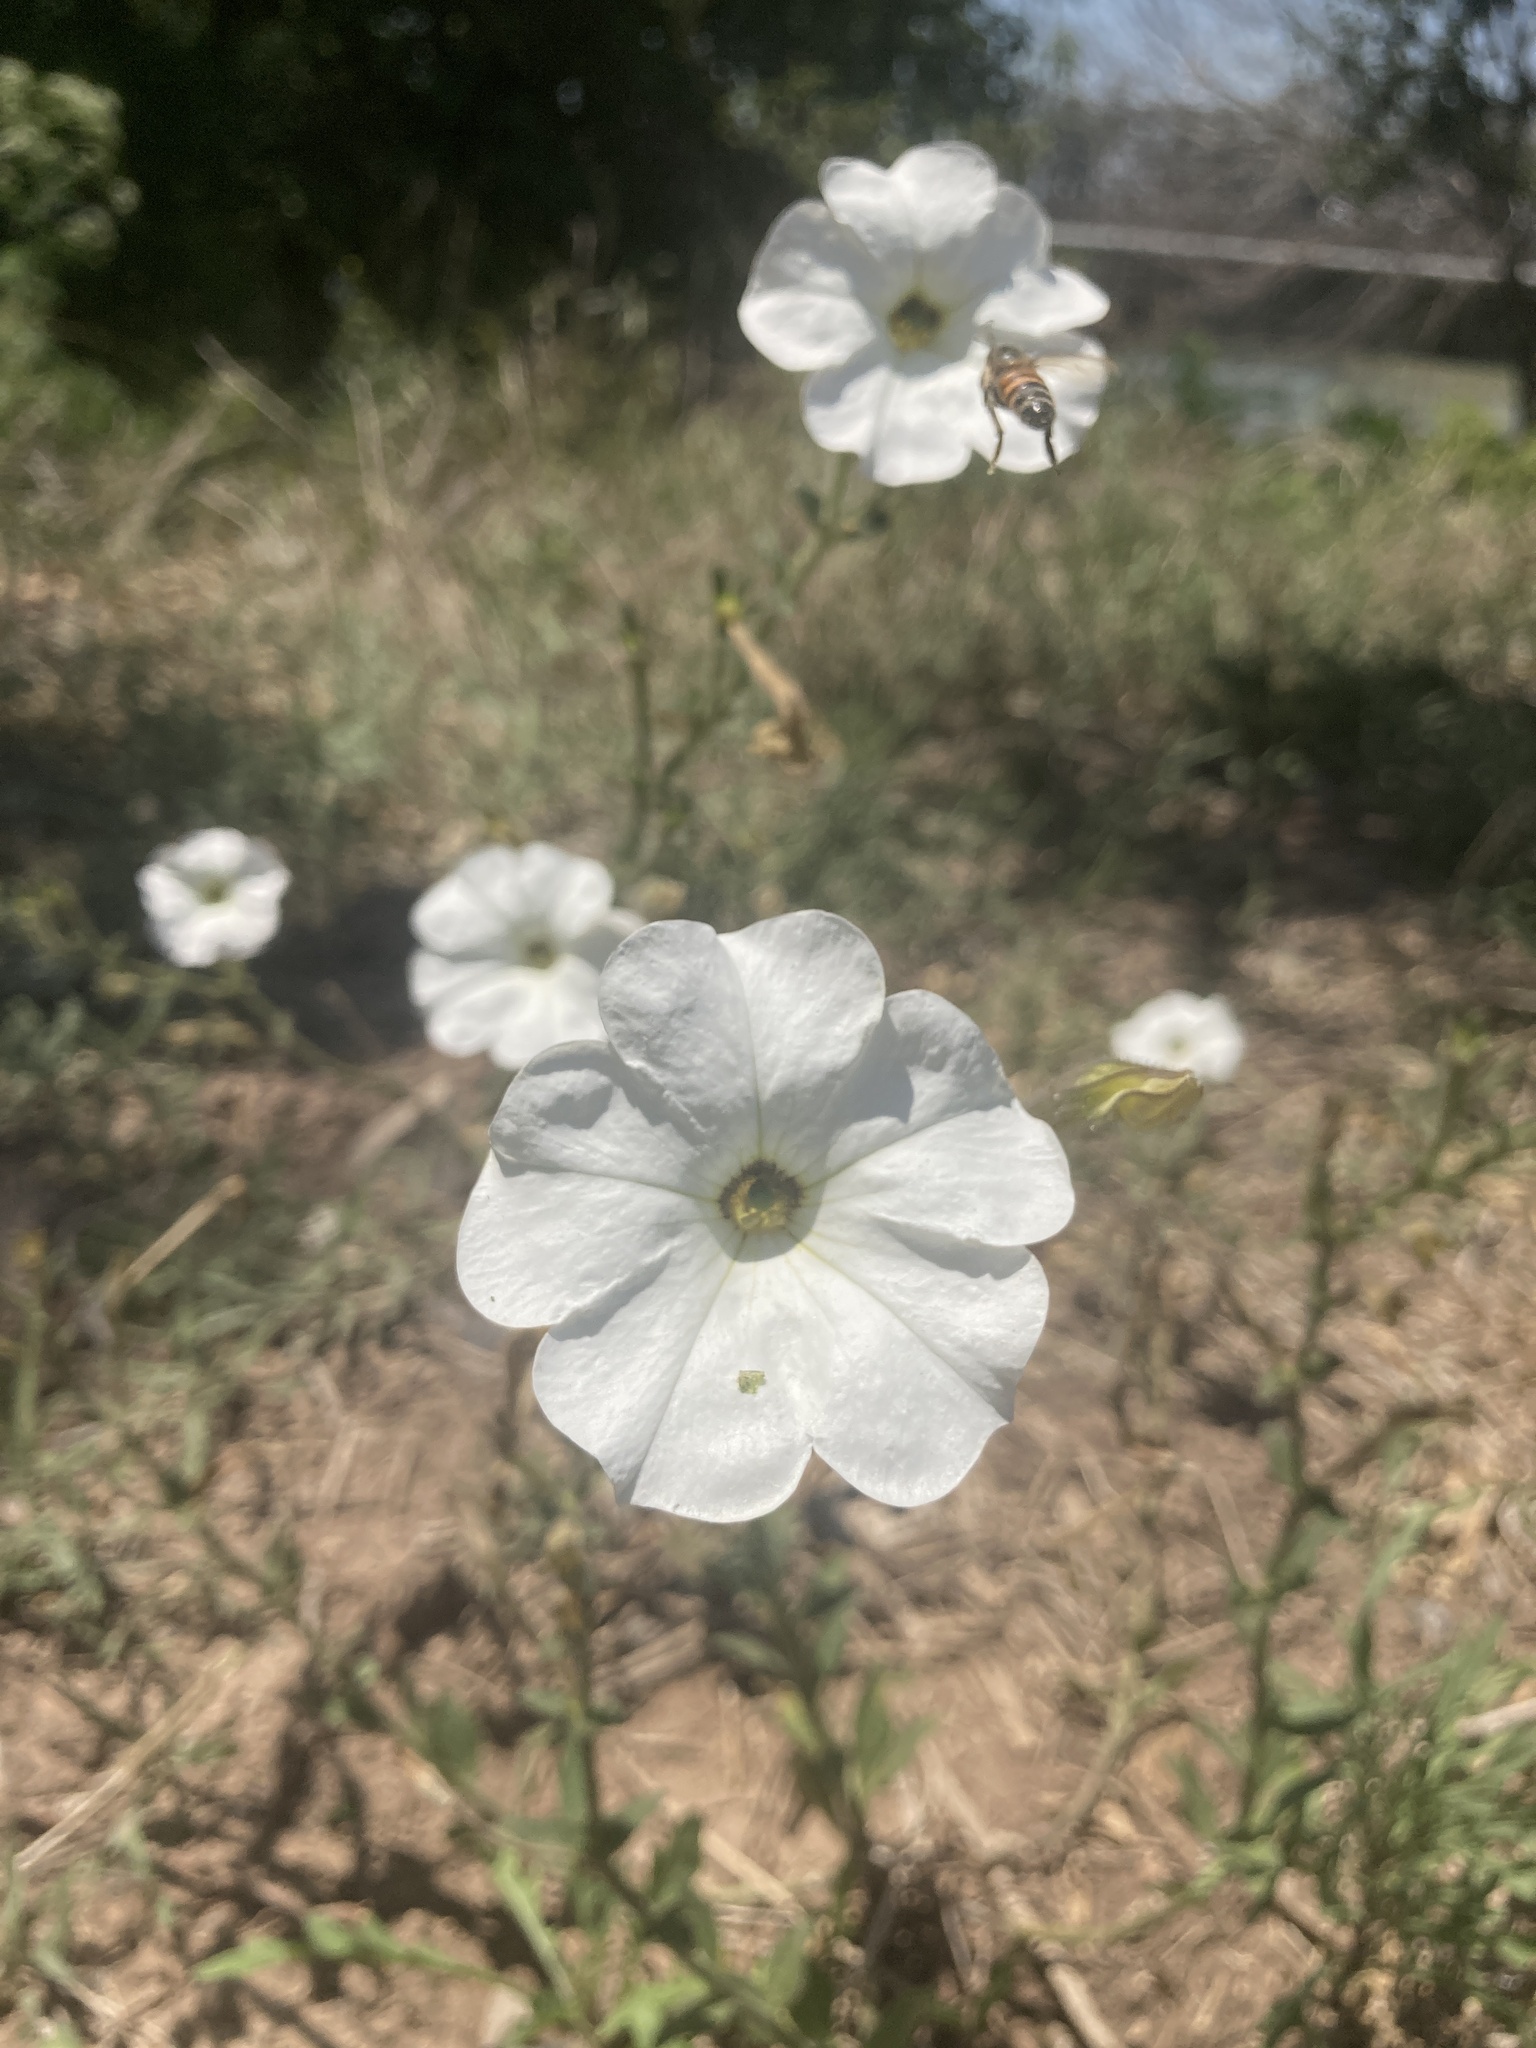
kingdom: Plantae
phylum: Tracheophyta
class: Magnoliopsida
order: Solanales
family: Solanaceae
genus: Petunia
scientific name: Petunia axillaris
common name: Large white petunia
